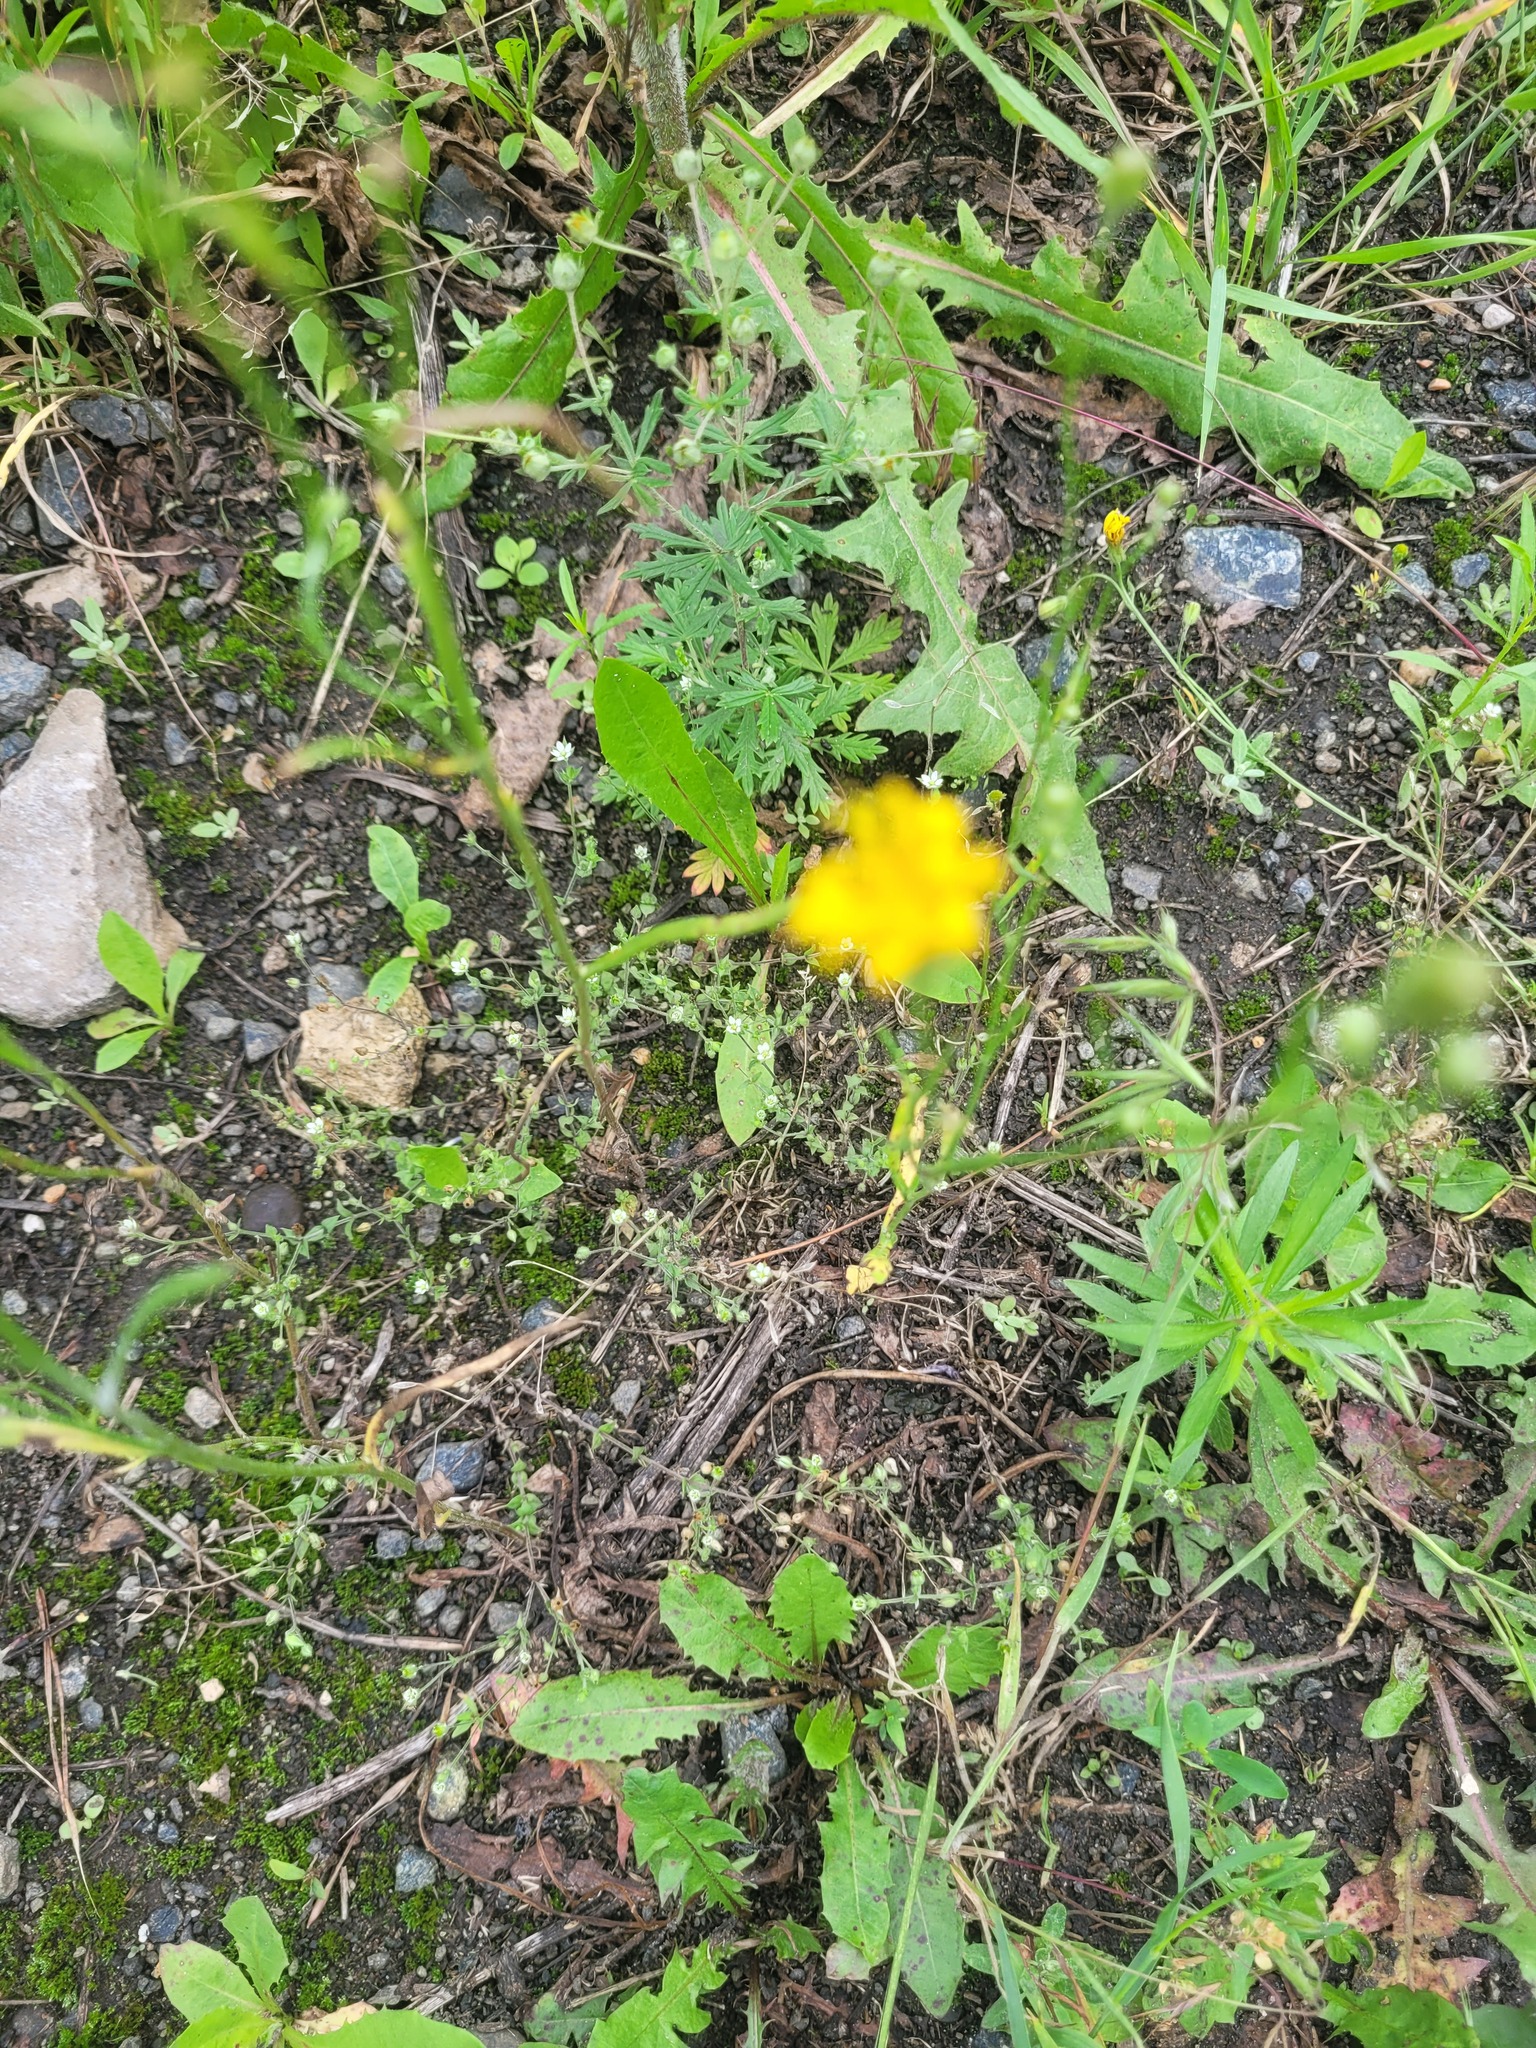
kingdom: Plantae
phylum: Tracheophyta
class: Magnoliopsida
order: Asterales
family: Asteraceae
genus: Crepis
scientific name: Crepis tectorum
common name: Narrow-leaved hawk's-beard
